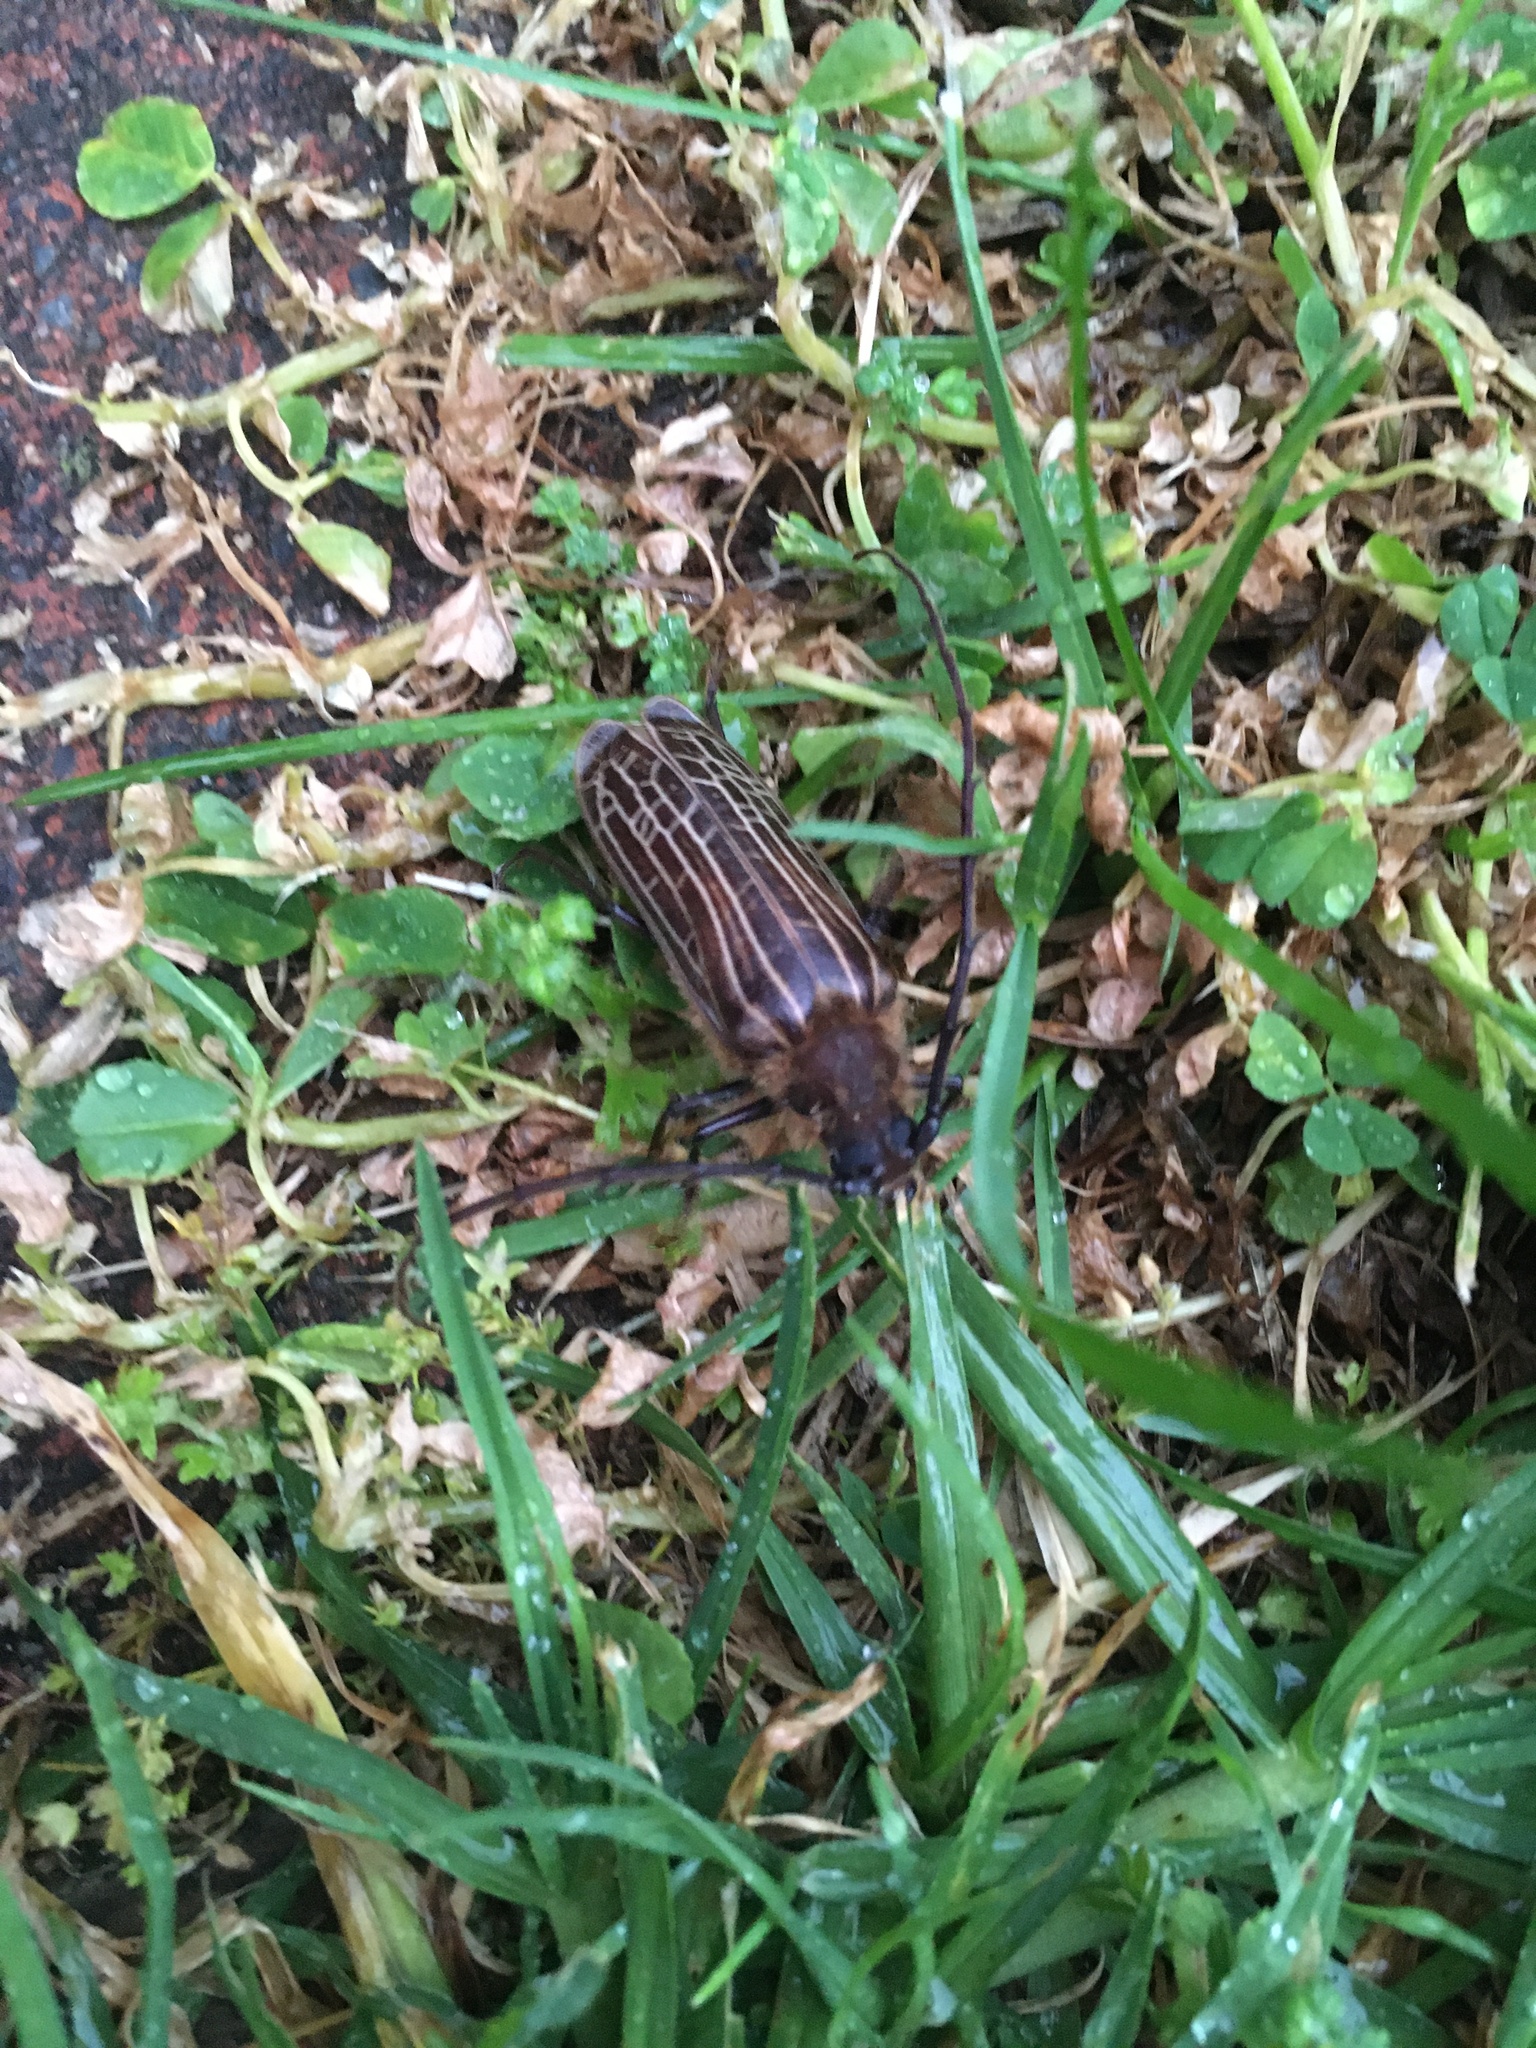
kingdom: Animalia
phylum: Arthropoda
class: Insecta
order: Coleoptera
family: Cerambycidae
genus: Prionoplus
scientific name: Prionoplus reticularis
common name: Huhu beetle
